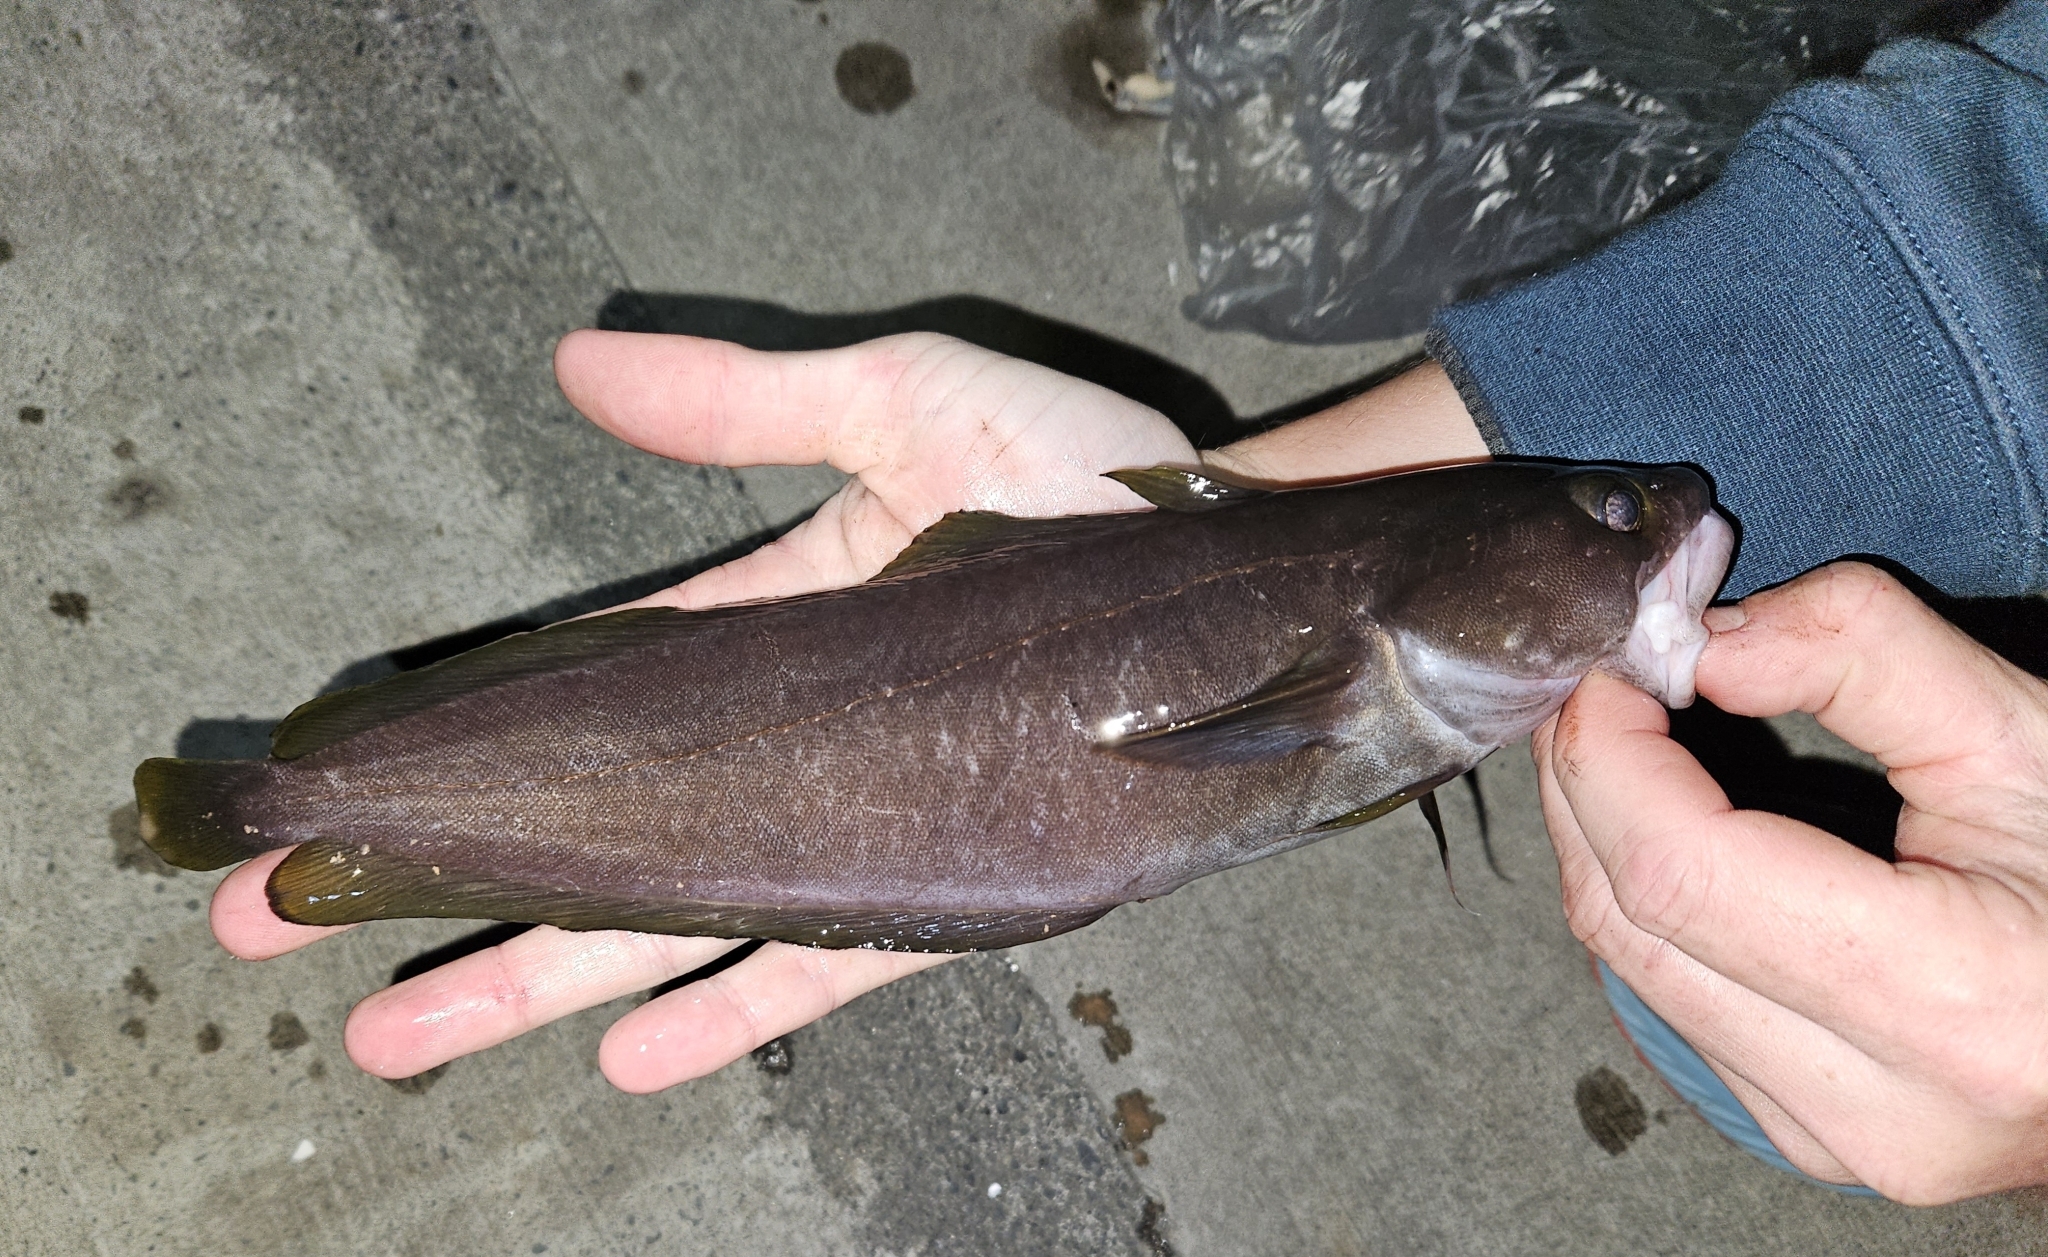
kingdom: Animalia
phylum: Chordata
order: Gadiformes
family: Moridae
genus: Lotella
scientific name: Lotella rhacina
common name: Rock cod
